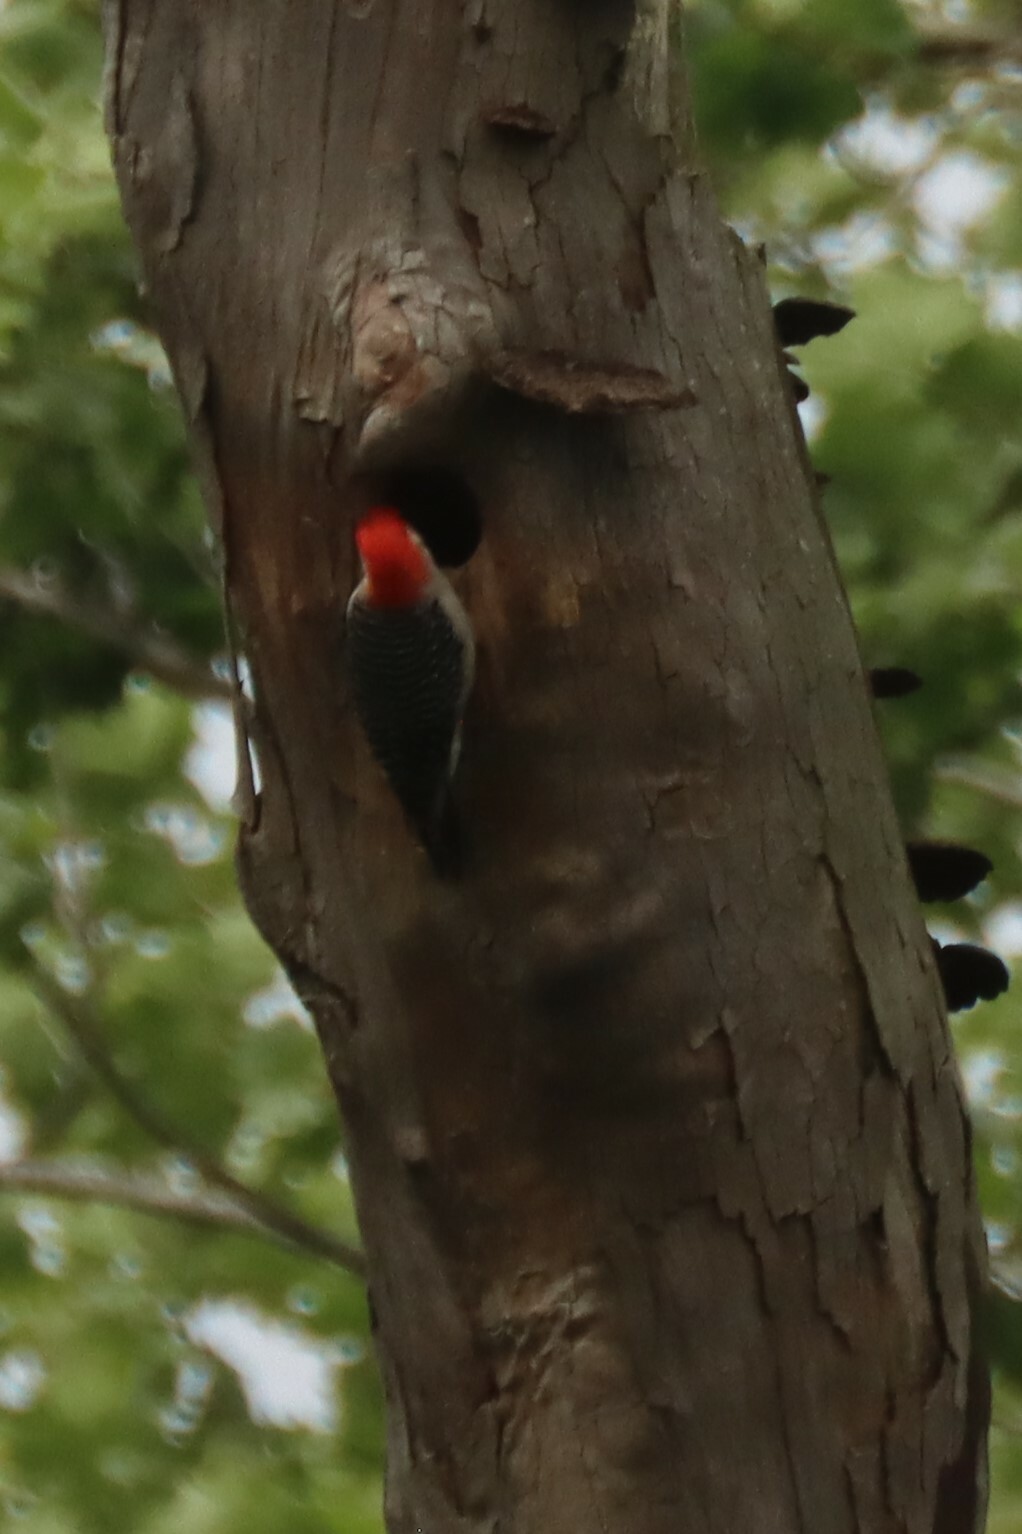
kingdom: Animalia
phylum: Chordata
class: Aves
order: Piciformes
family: Picidae
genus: Melanerpes
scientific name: Melanerpes carolinus
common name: Red-bellied woodpecker
